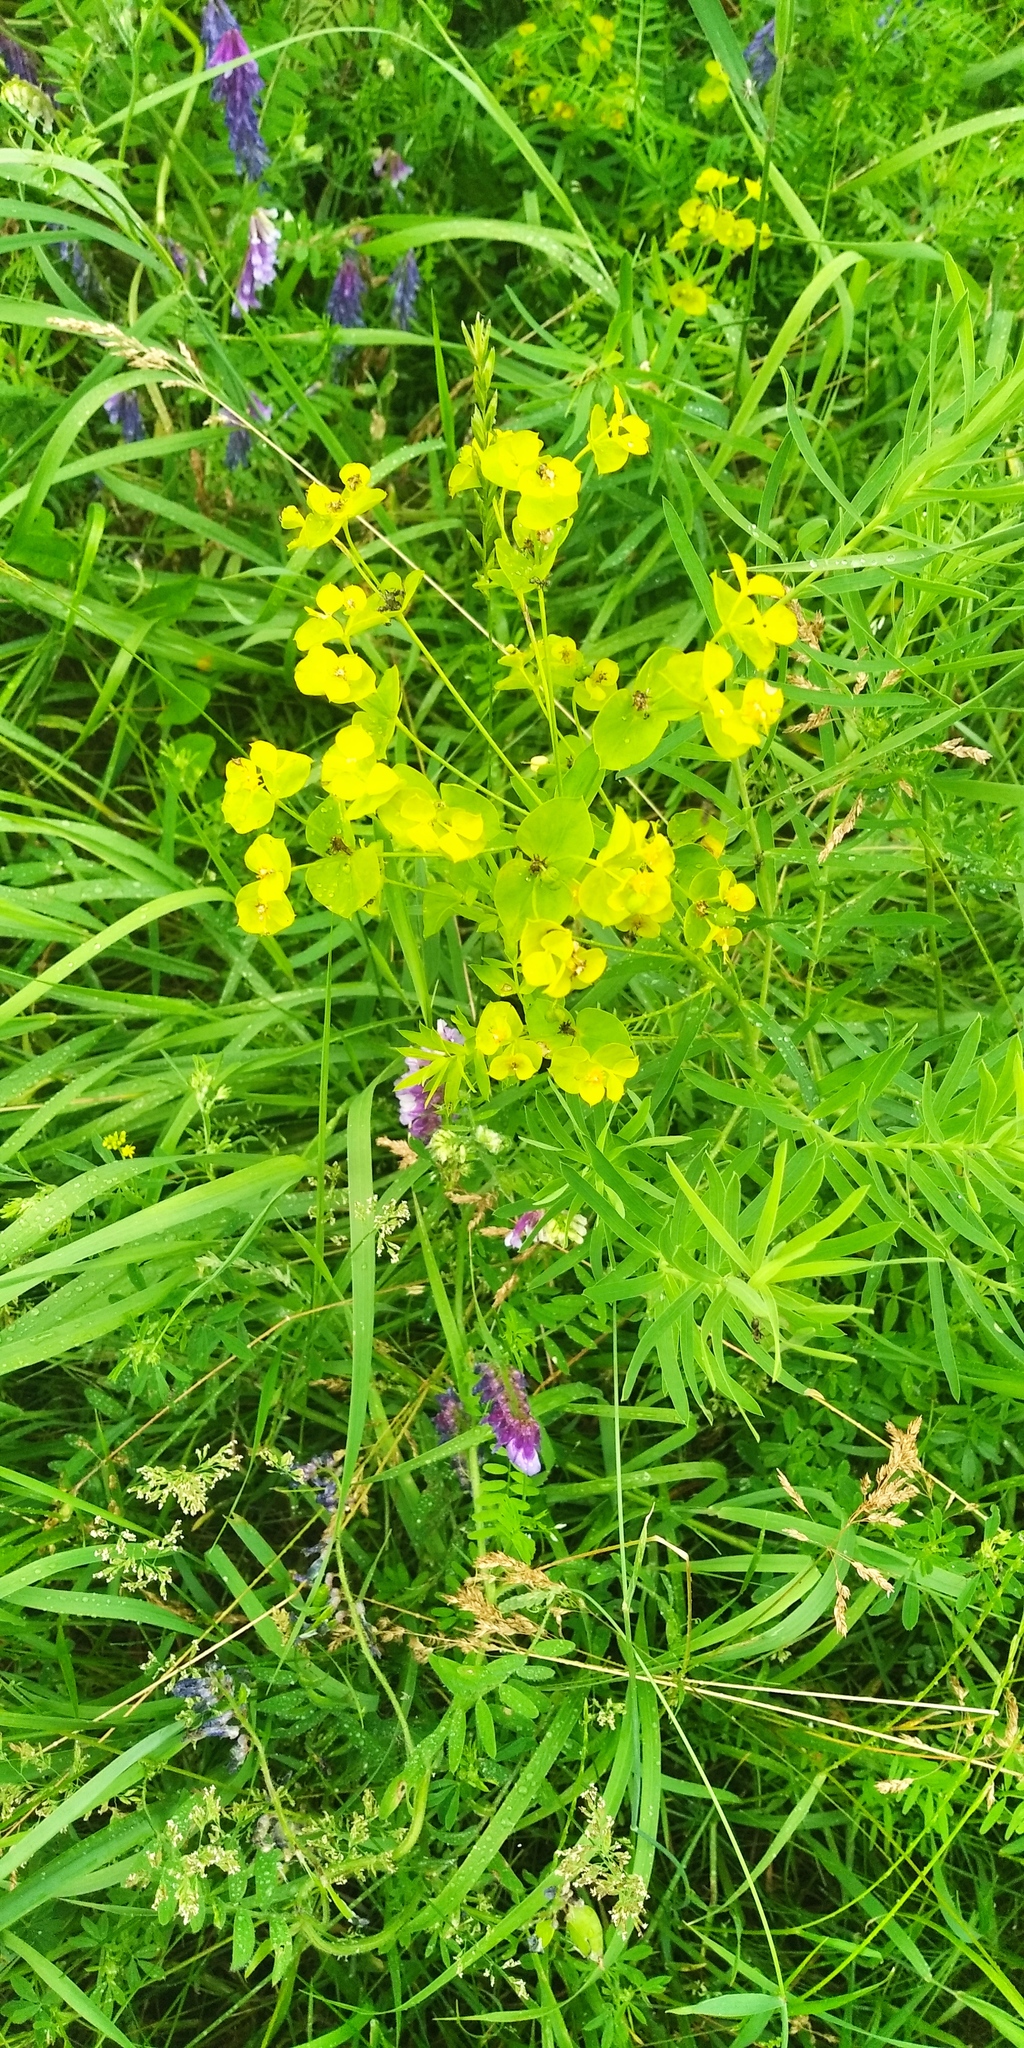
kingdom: Plantae
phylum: Tracheophyta
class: Magnoliopsida
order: Malpighiales
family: Euphorbiaceae
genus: Euphorbia
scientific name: Euphorbia virgata
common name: Leafy spurge
